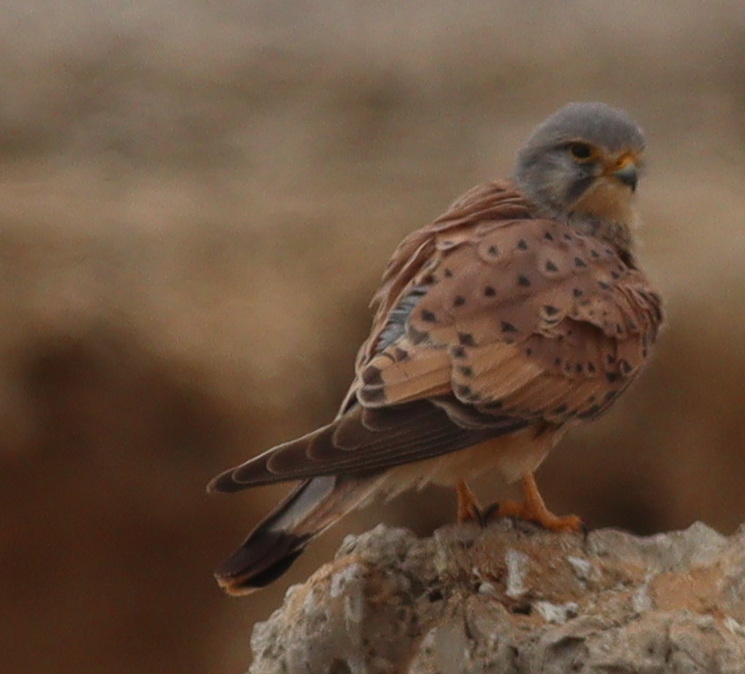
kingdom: Animalia
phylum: Chordata
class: Aves
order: Falconiformes
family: Falconidae
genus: Falco
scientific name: Falco tinnunculus
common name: Common kestrel
